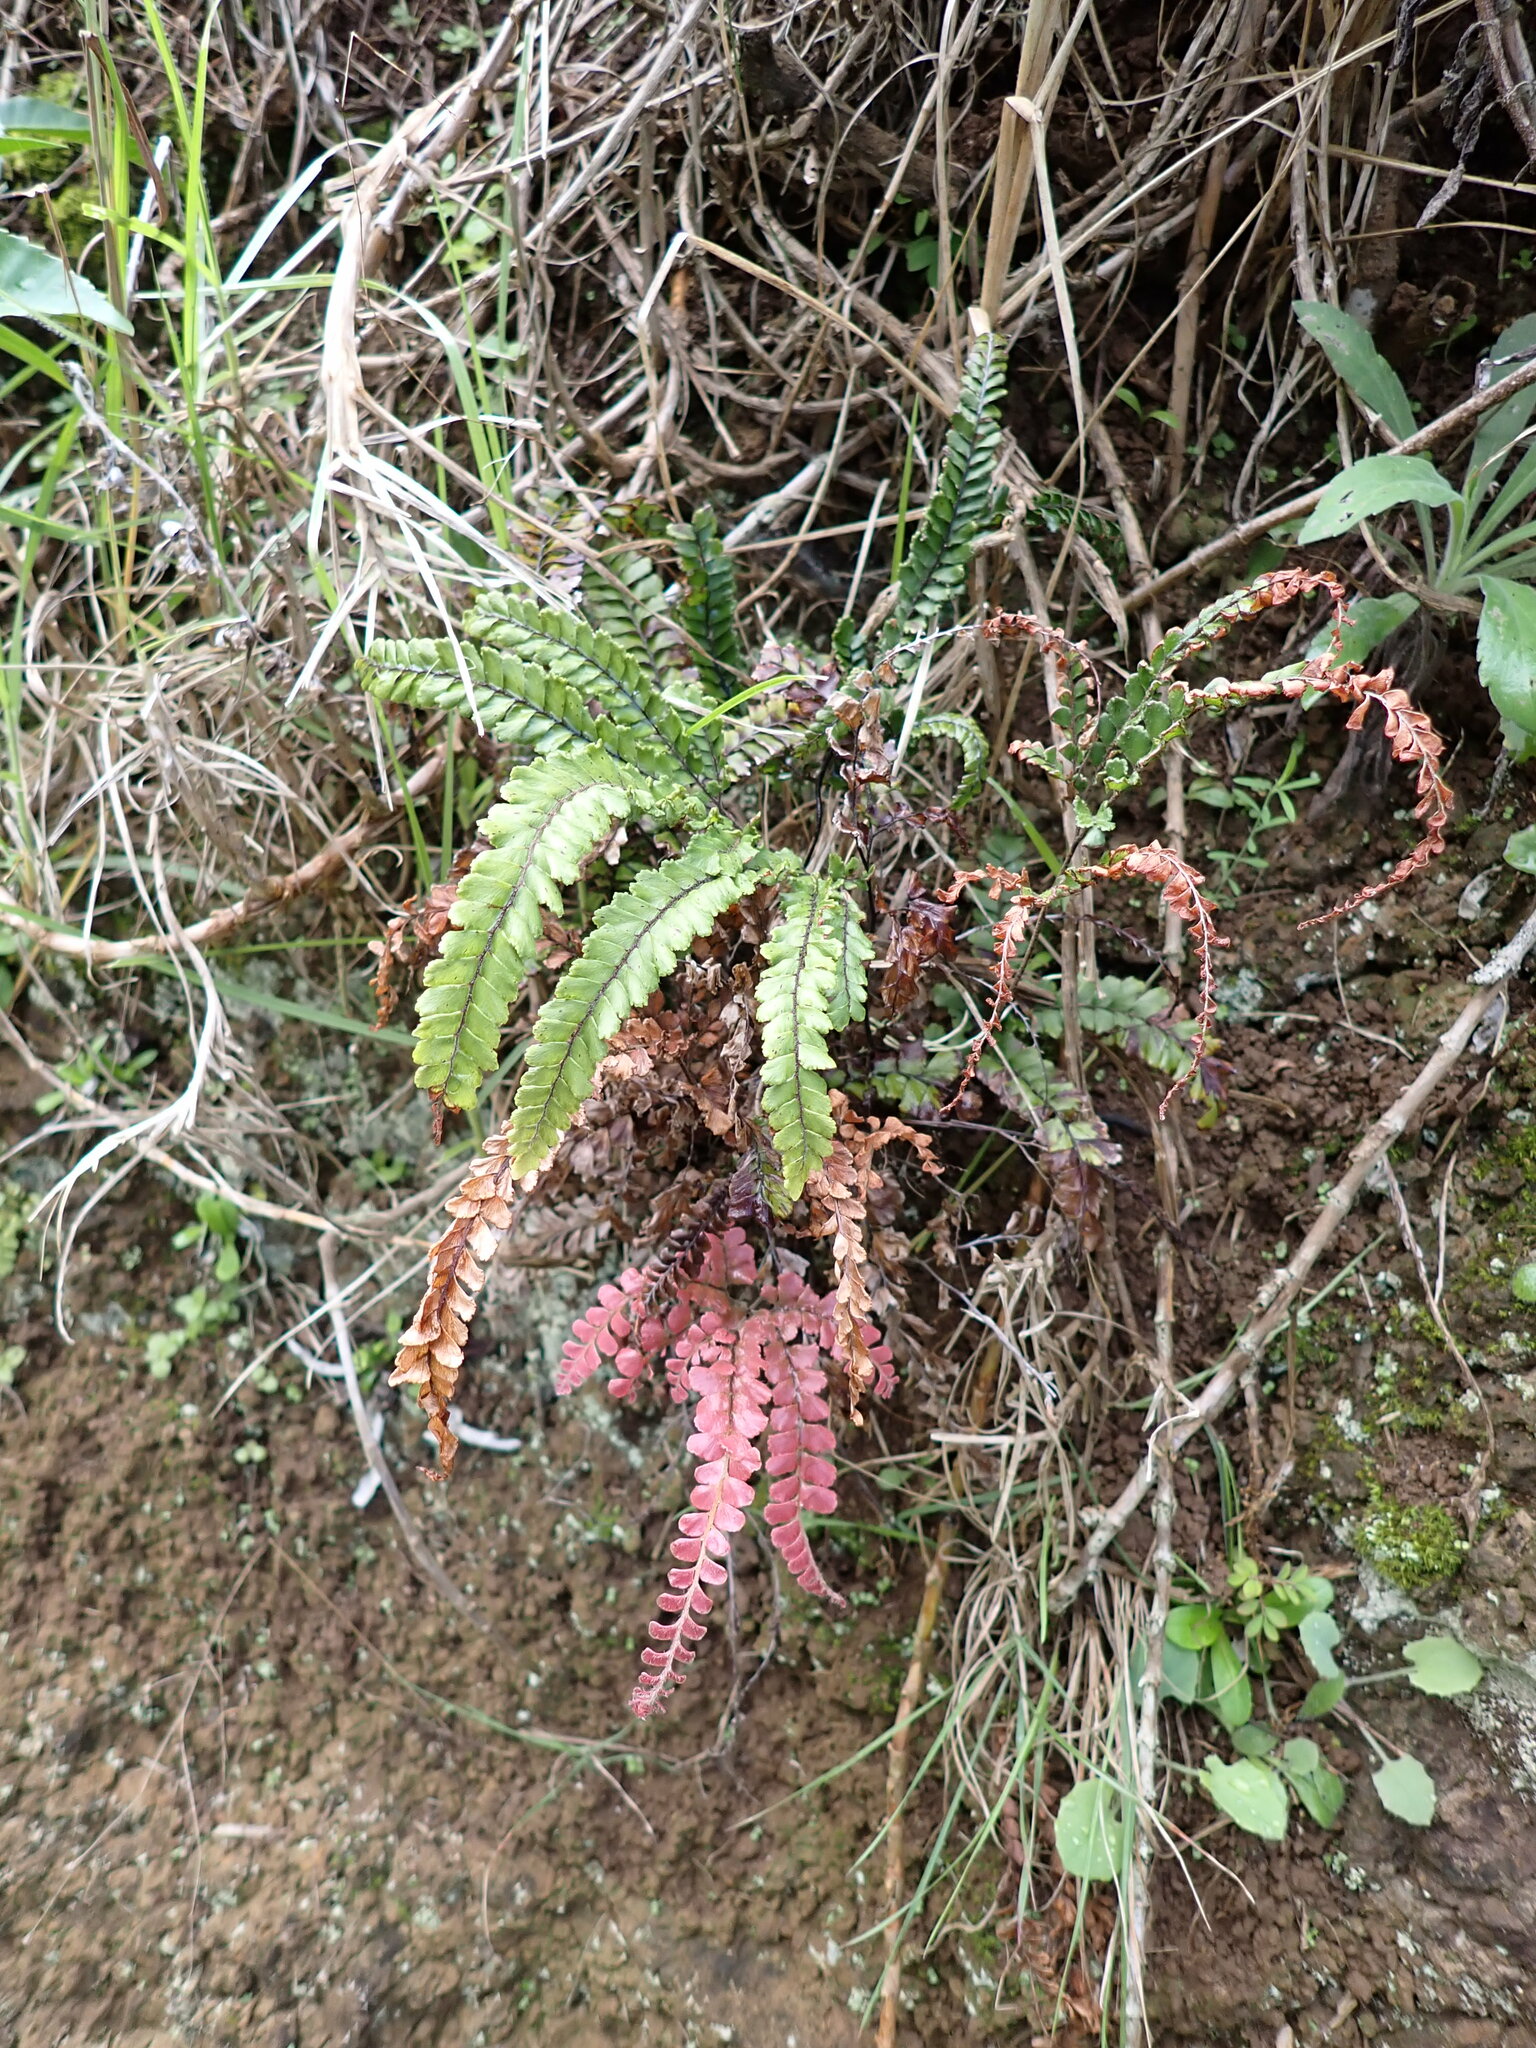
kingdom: Plantae
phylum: Tracheophyta
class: Polypodiopsida
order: Polypodiales
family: Pteridaceae
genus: Adiantum
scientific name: Adiantum hispidulum
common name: Rough maidenhair
